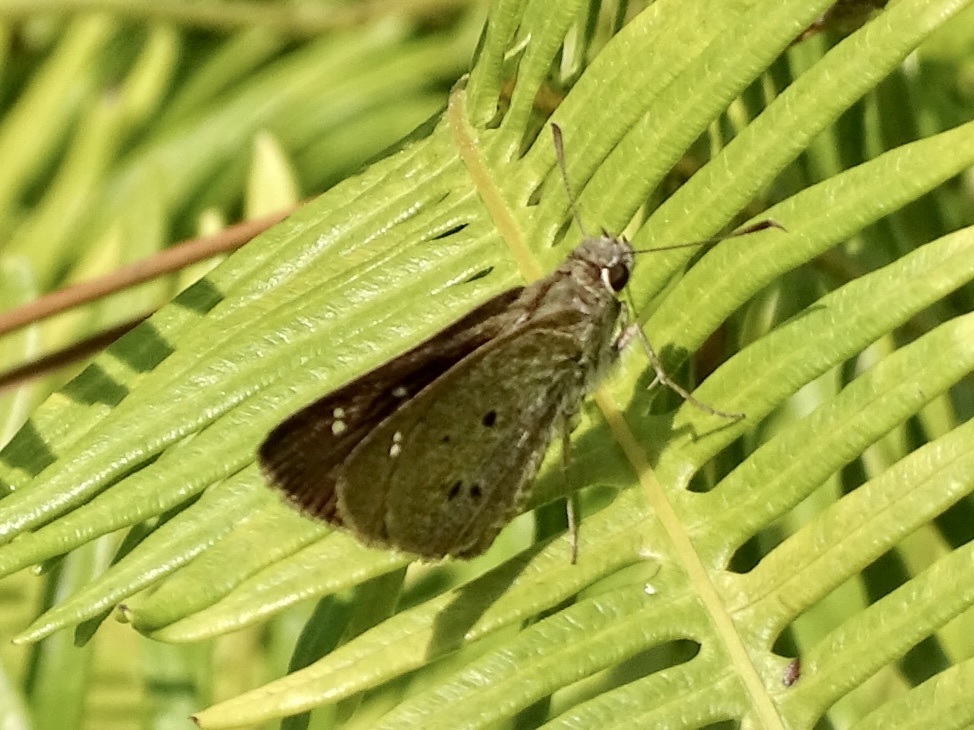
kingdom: Animalia
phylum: Arthropoda
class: Insecta
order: Lepidoptera
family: Hesperiidae
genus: Suastus
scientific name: Suastus gremius
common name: Indian palm bob
